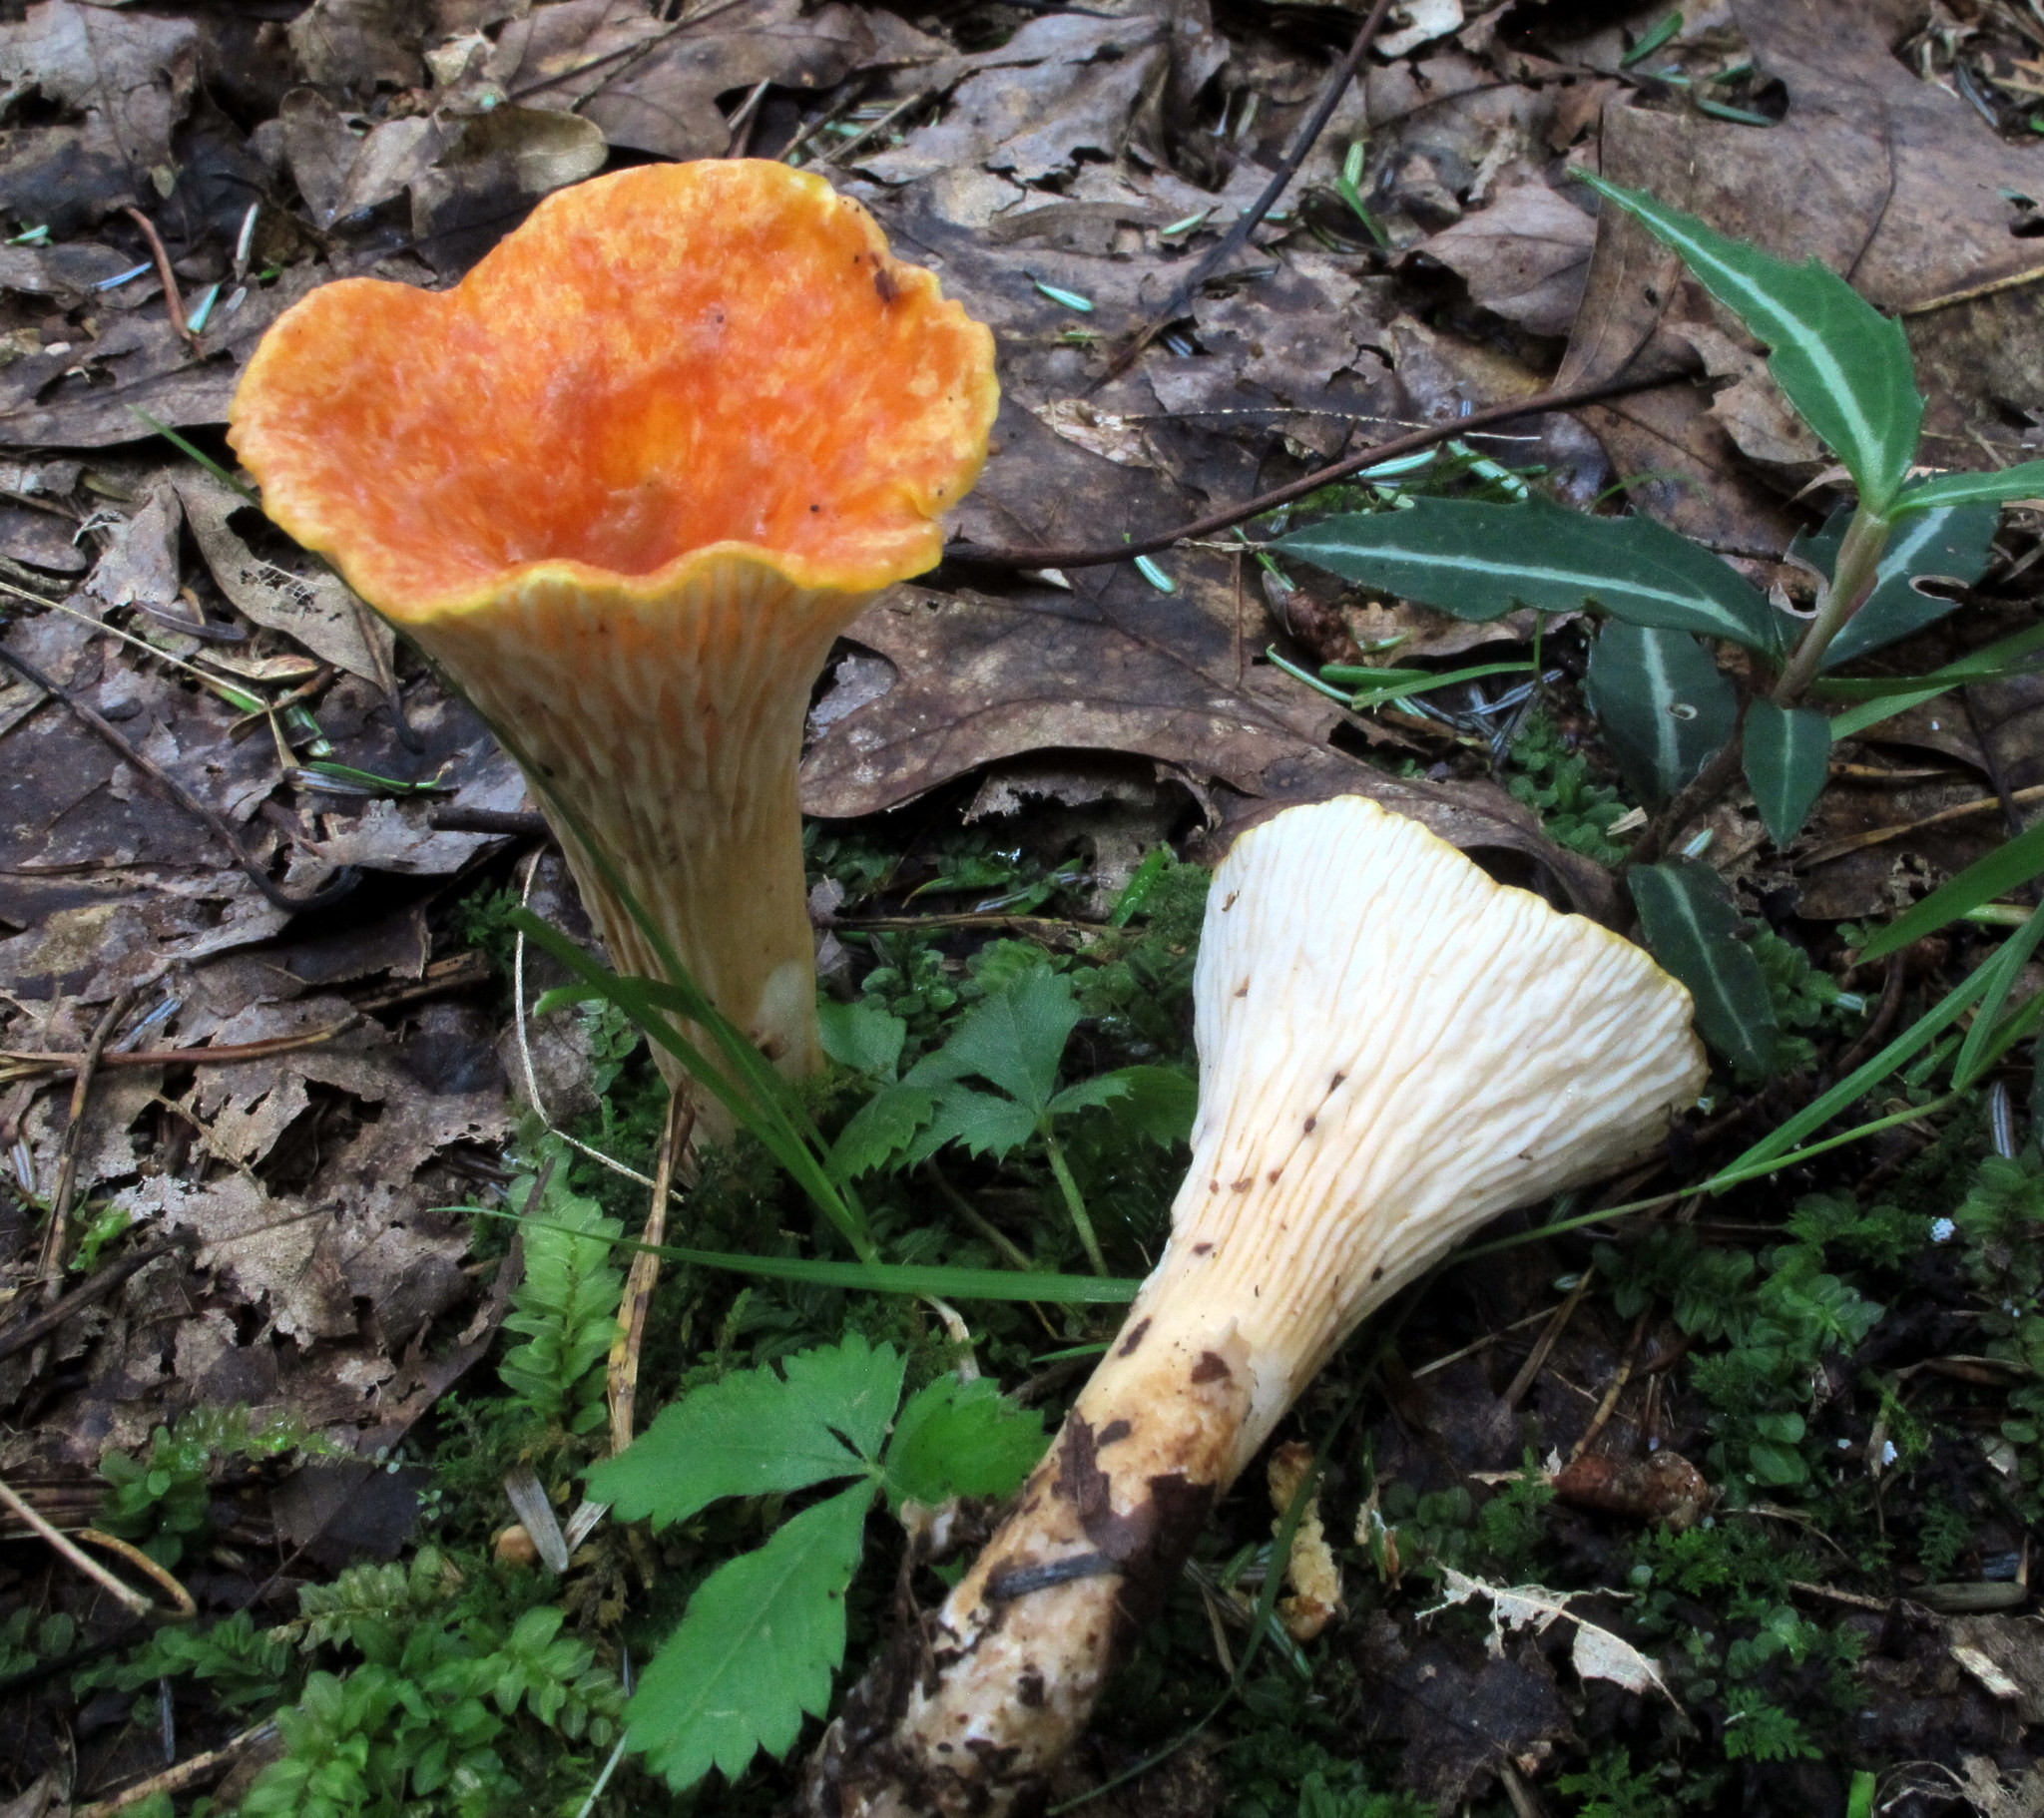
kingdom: Fungi
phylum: Basidiomycota
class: Agaricomycetes
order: Gomphales
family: Gomphaceae
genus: Turbinellus
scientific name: Turbinellus floccosus
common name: Scaly chanterelle
